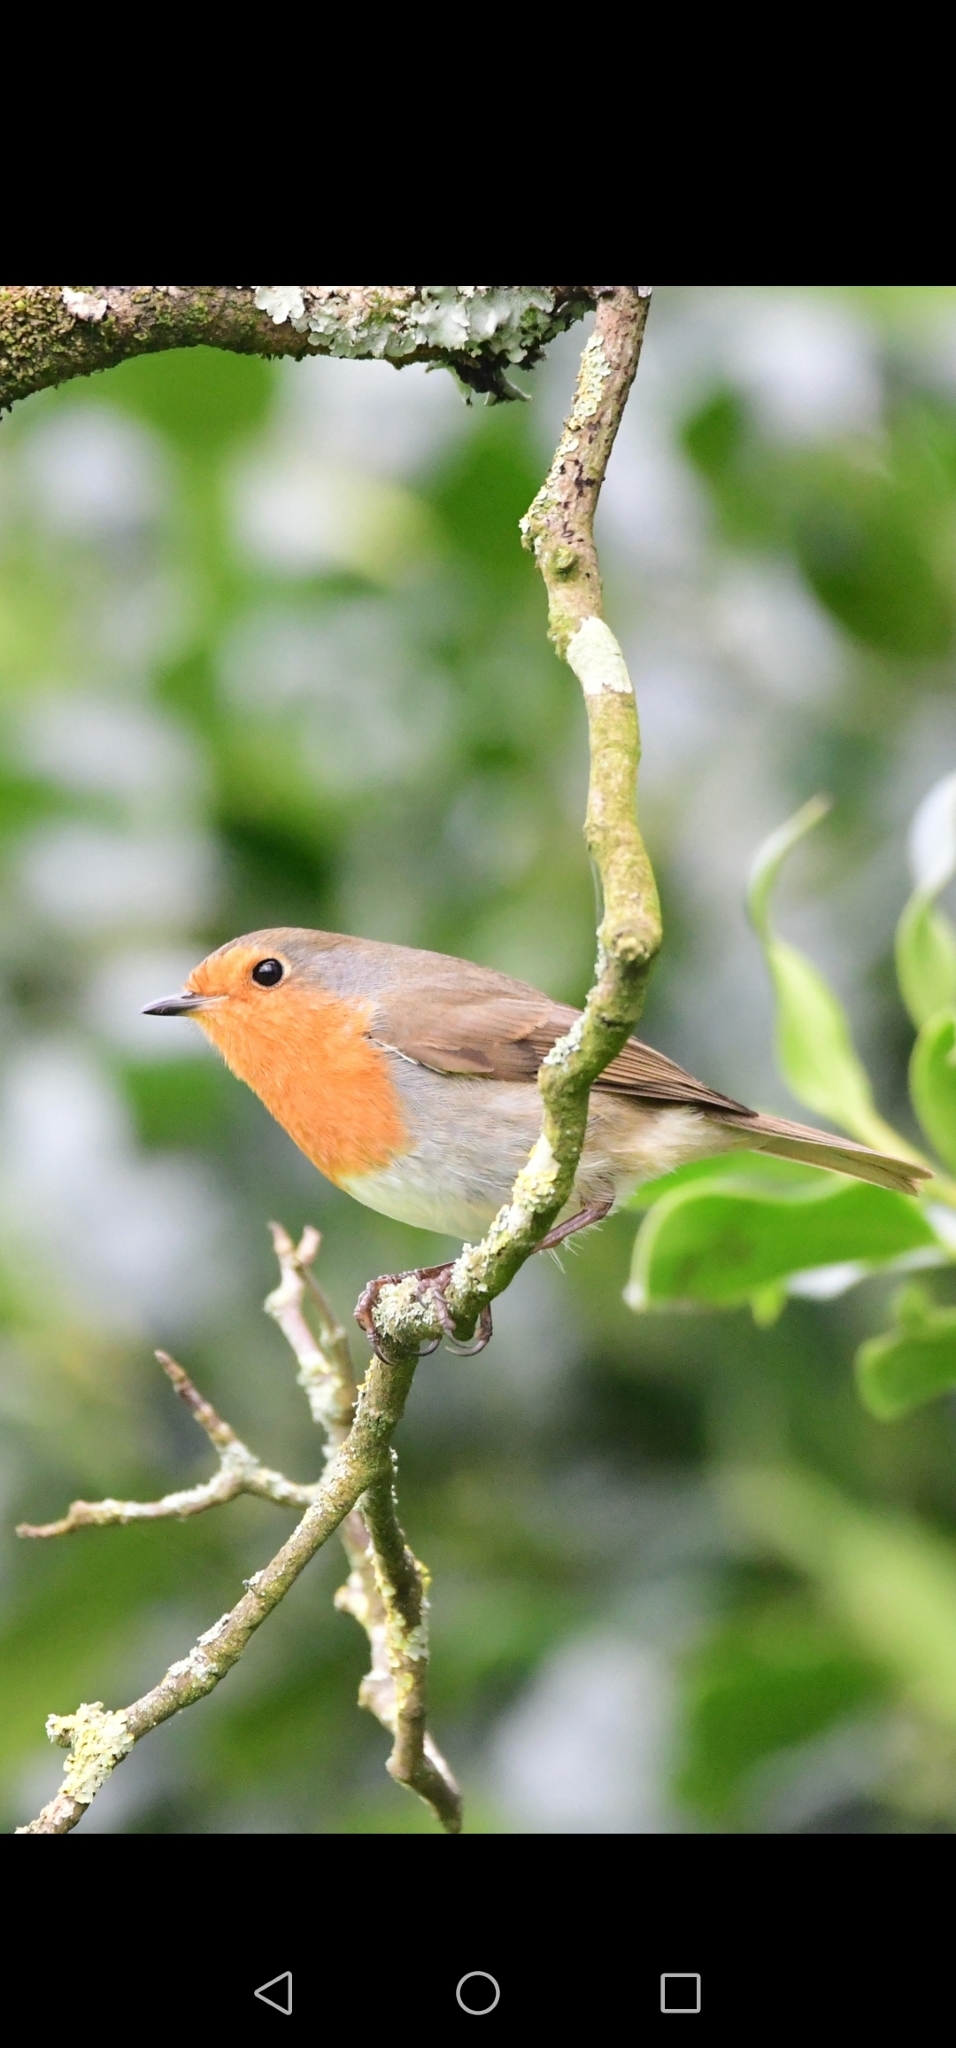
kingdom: Animalia
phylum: Chordata
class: Aves
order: Passeriformes
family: Muscicapidae
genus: Erithacus
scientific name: Erithacus rubecula
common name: European robin
